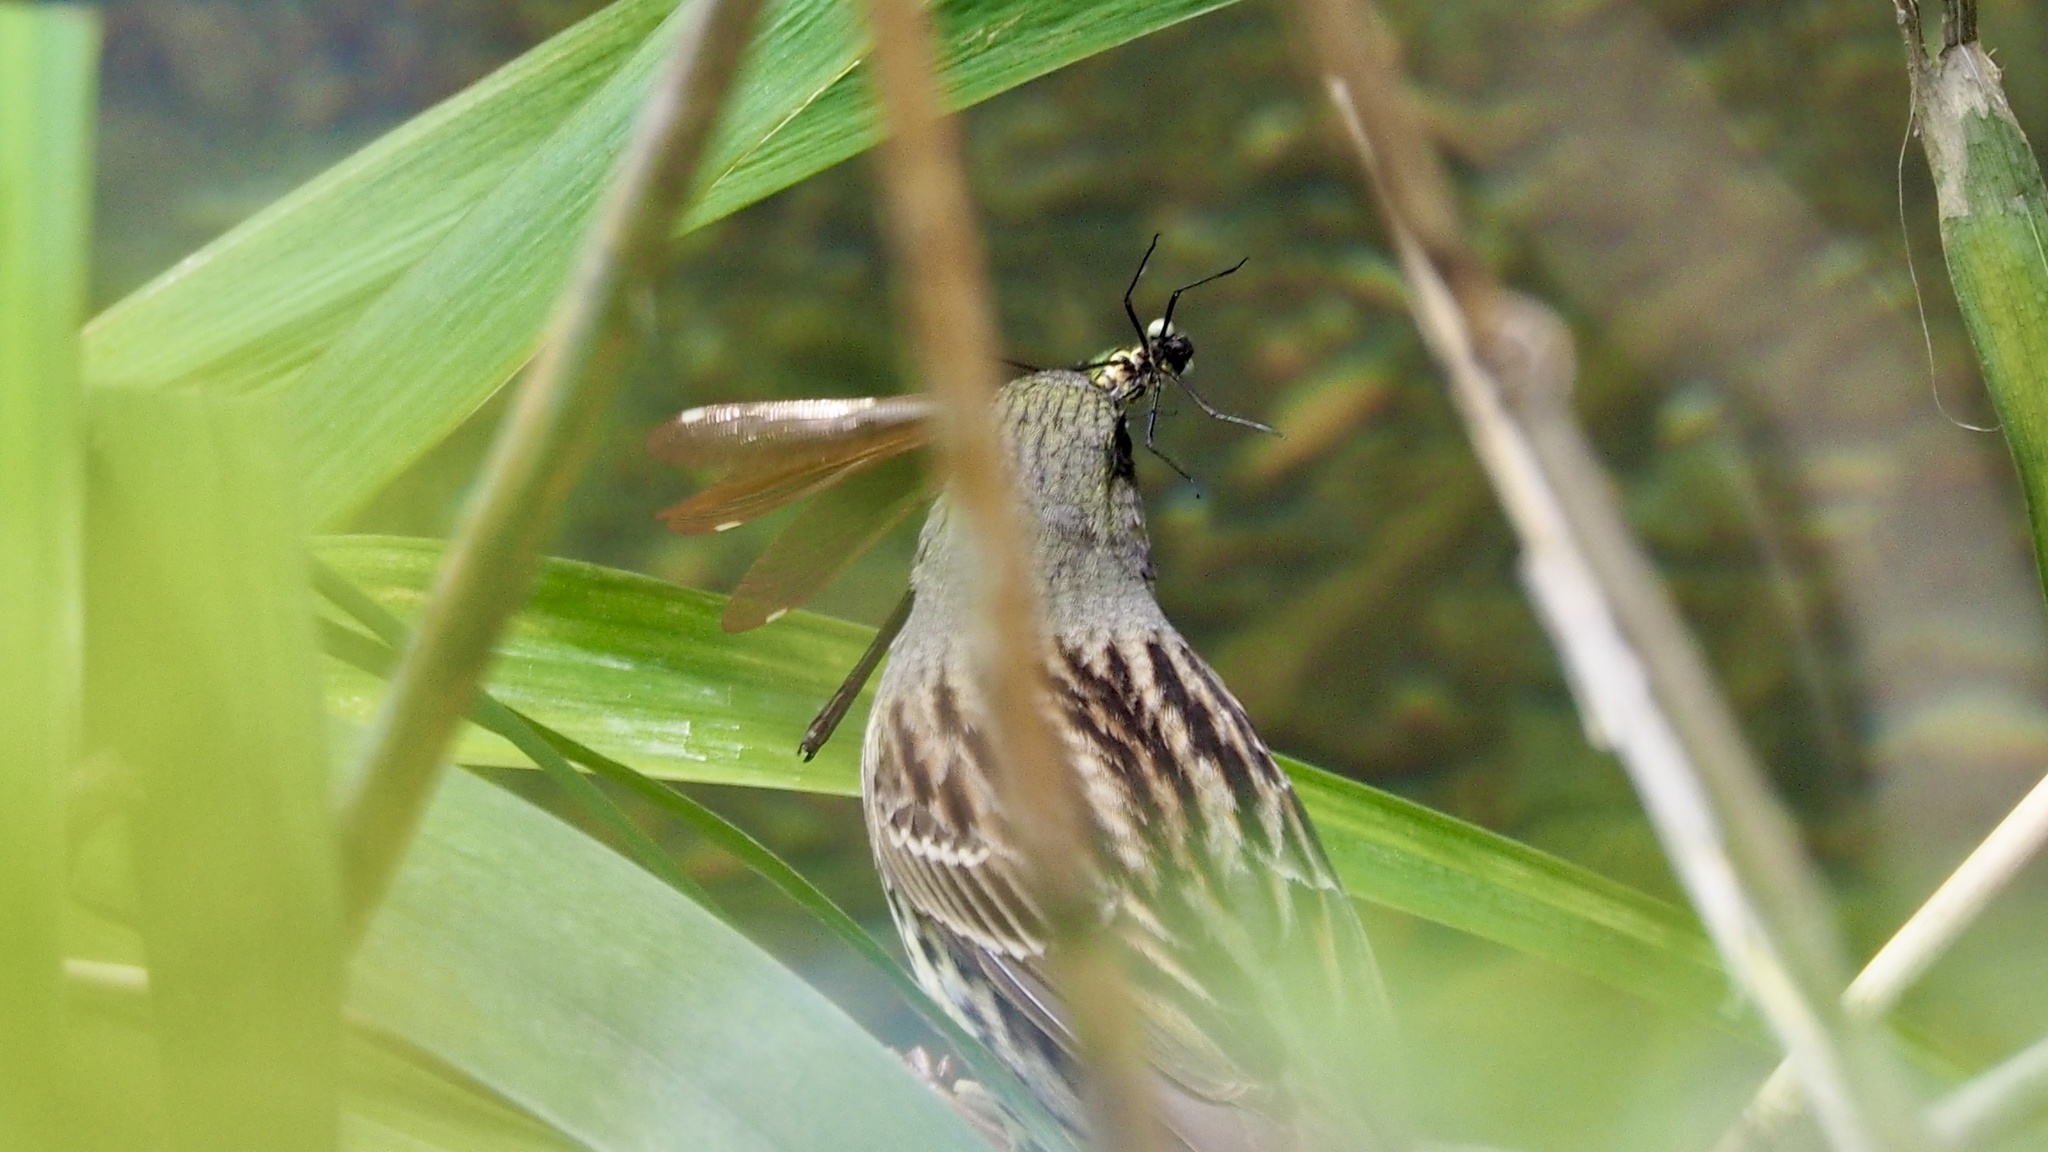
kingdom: Animalia
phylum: Arthropoda
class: Insecta
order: Odonata
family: Calopterygidae
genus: Mnais
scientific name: Mnais costalis
